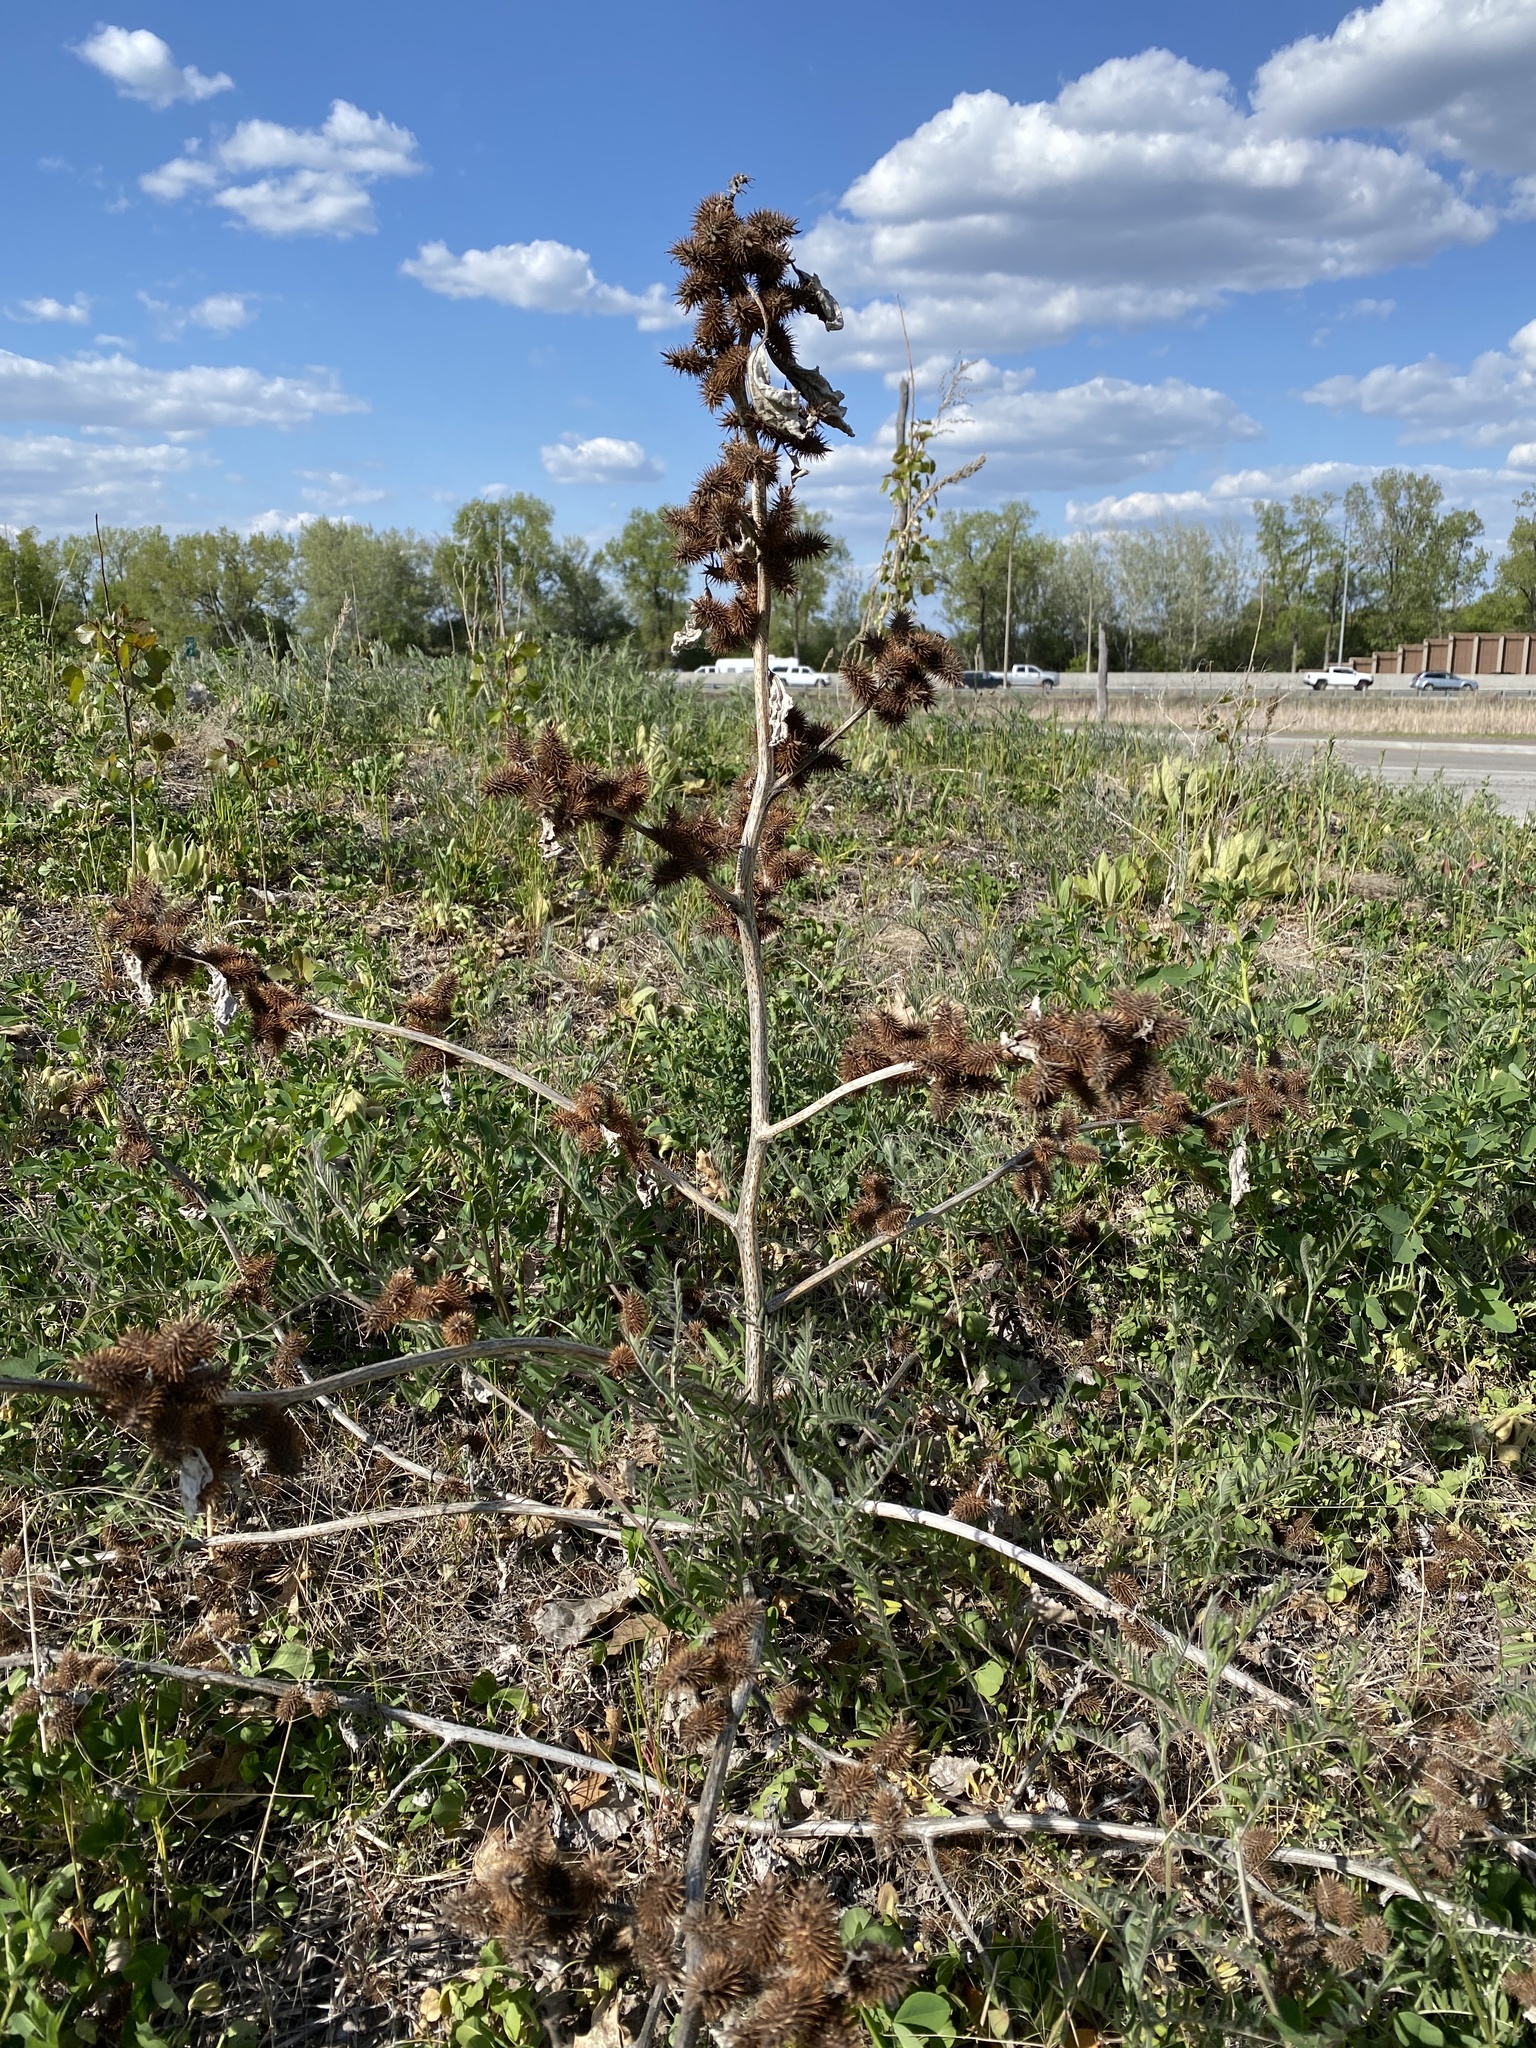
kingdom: Plantae
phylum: Tracheophyta
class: Magnoliopsida
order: Asterales
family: Asteraceae
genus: Xanthium
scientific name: Xanthium strumarium
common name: Rough cocklebur
